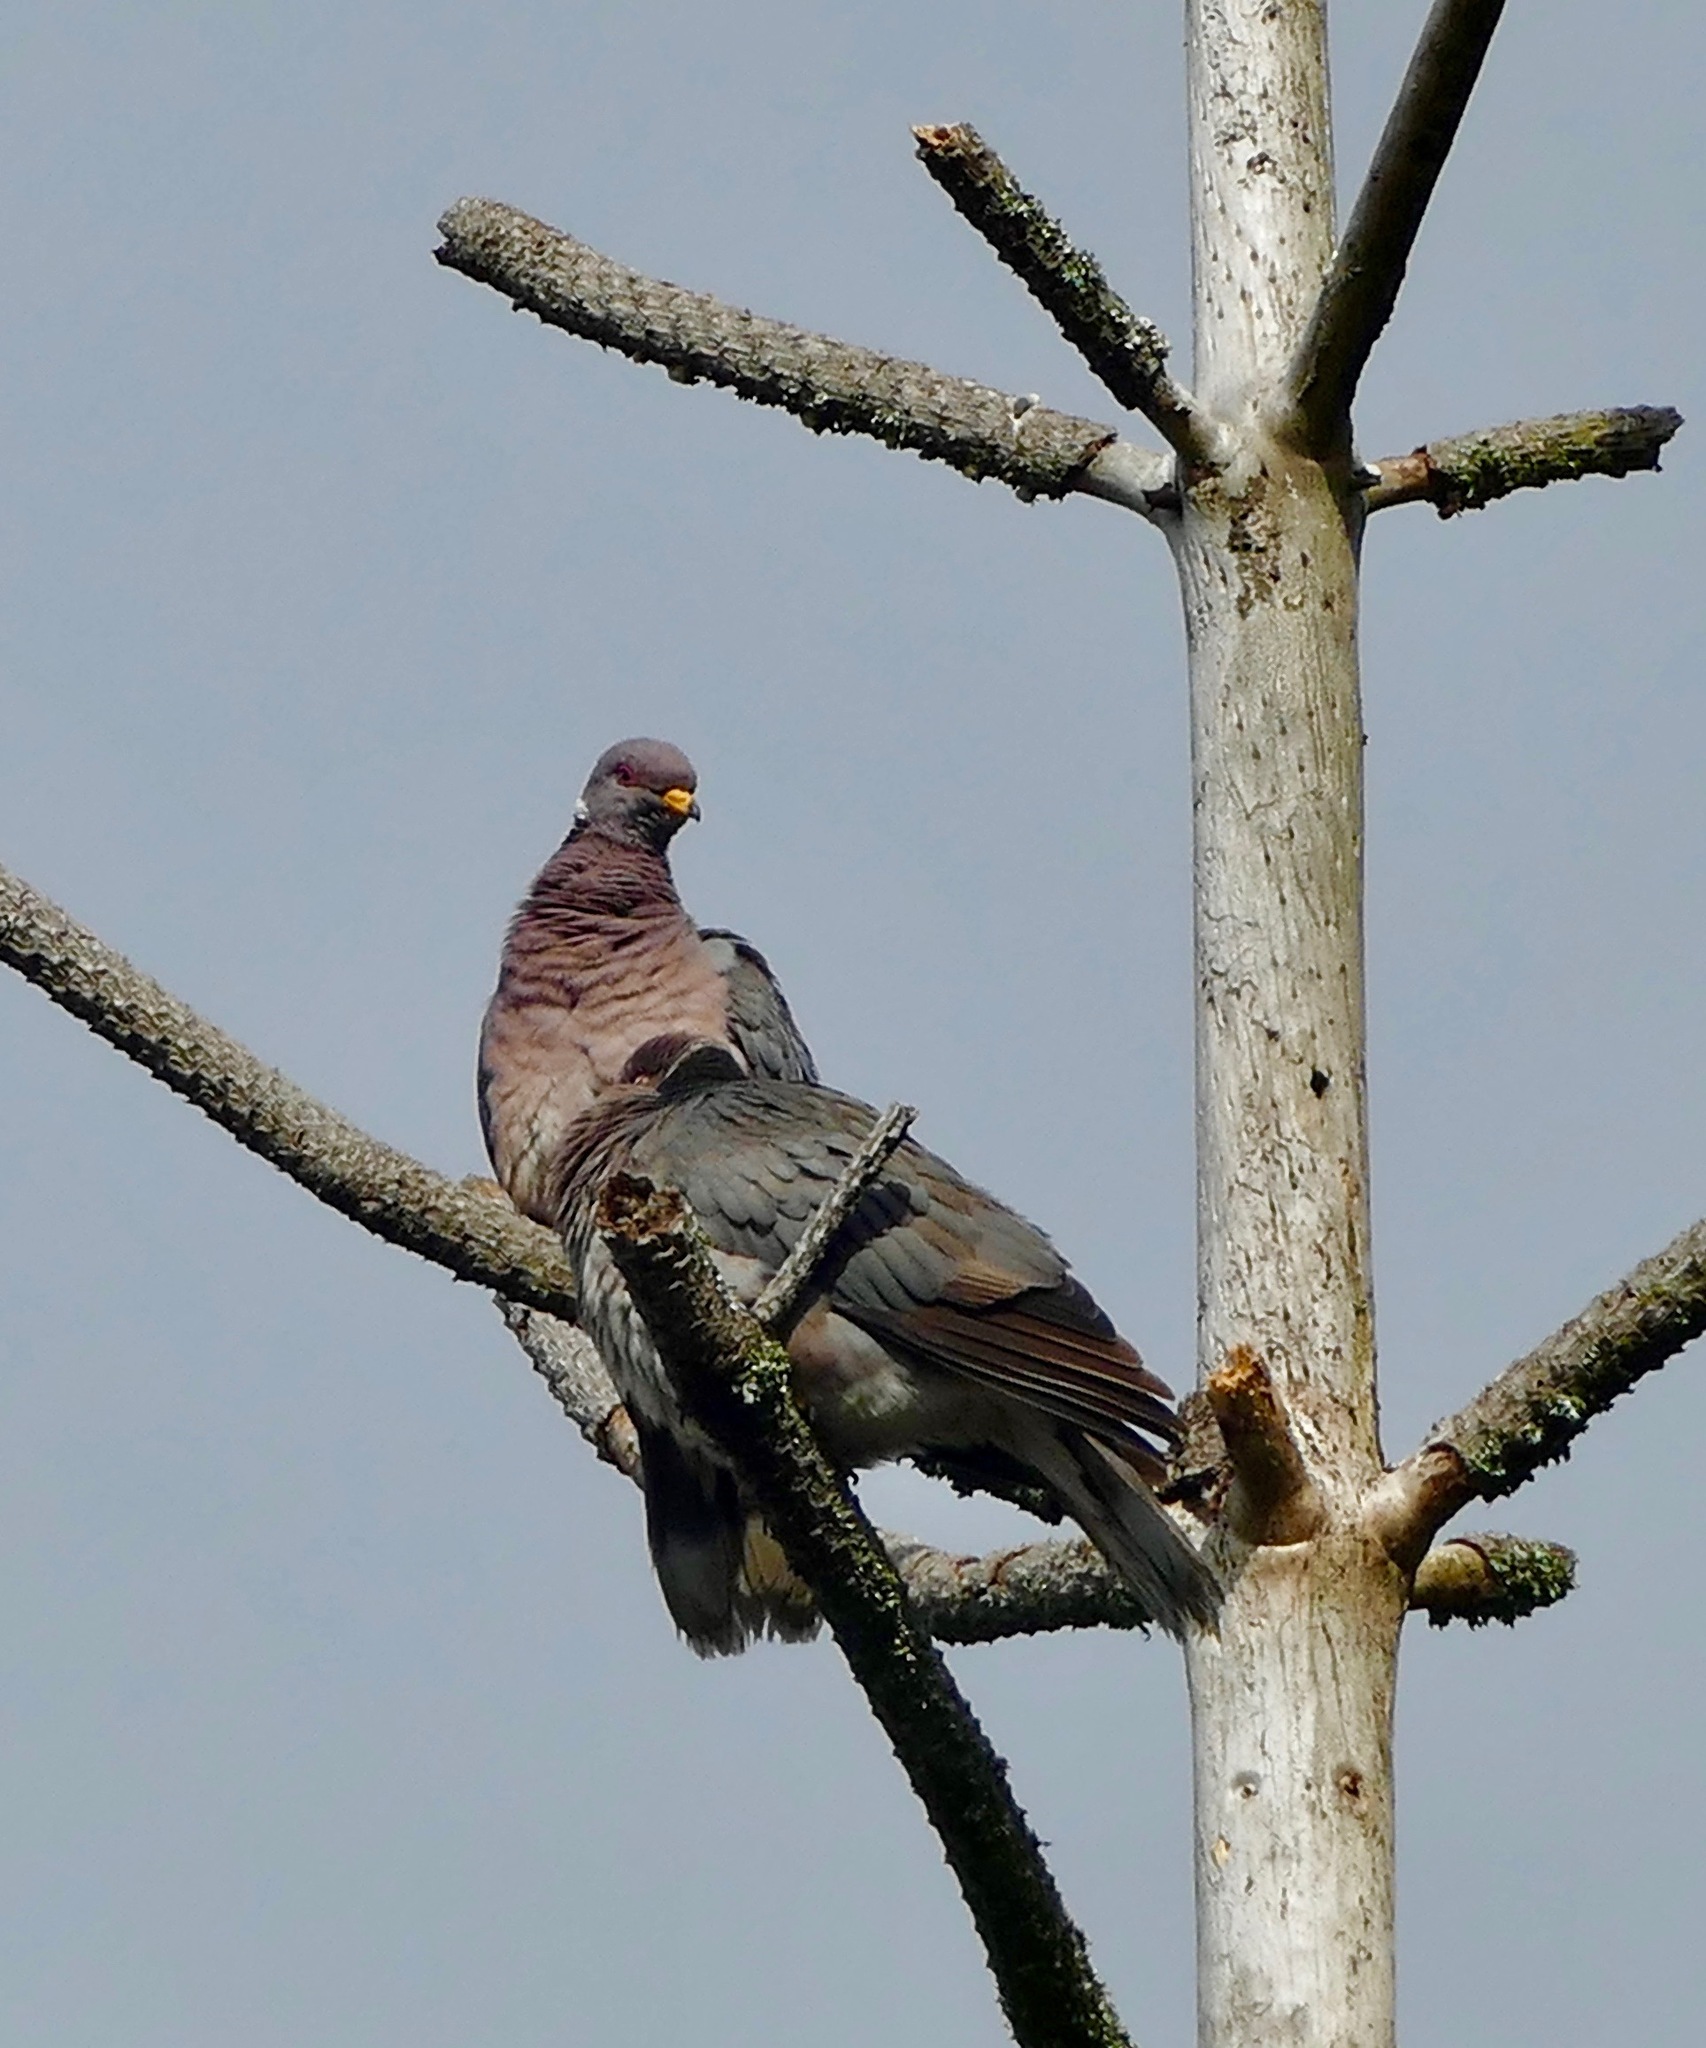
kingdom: Animalia
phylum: Chordata
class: Aves
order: Columbiformes
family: Columbidae
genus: Patagioenas
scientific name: Patagioenas fasciata
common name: Band-tailed pigeon
